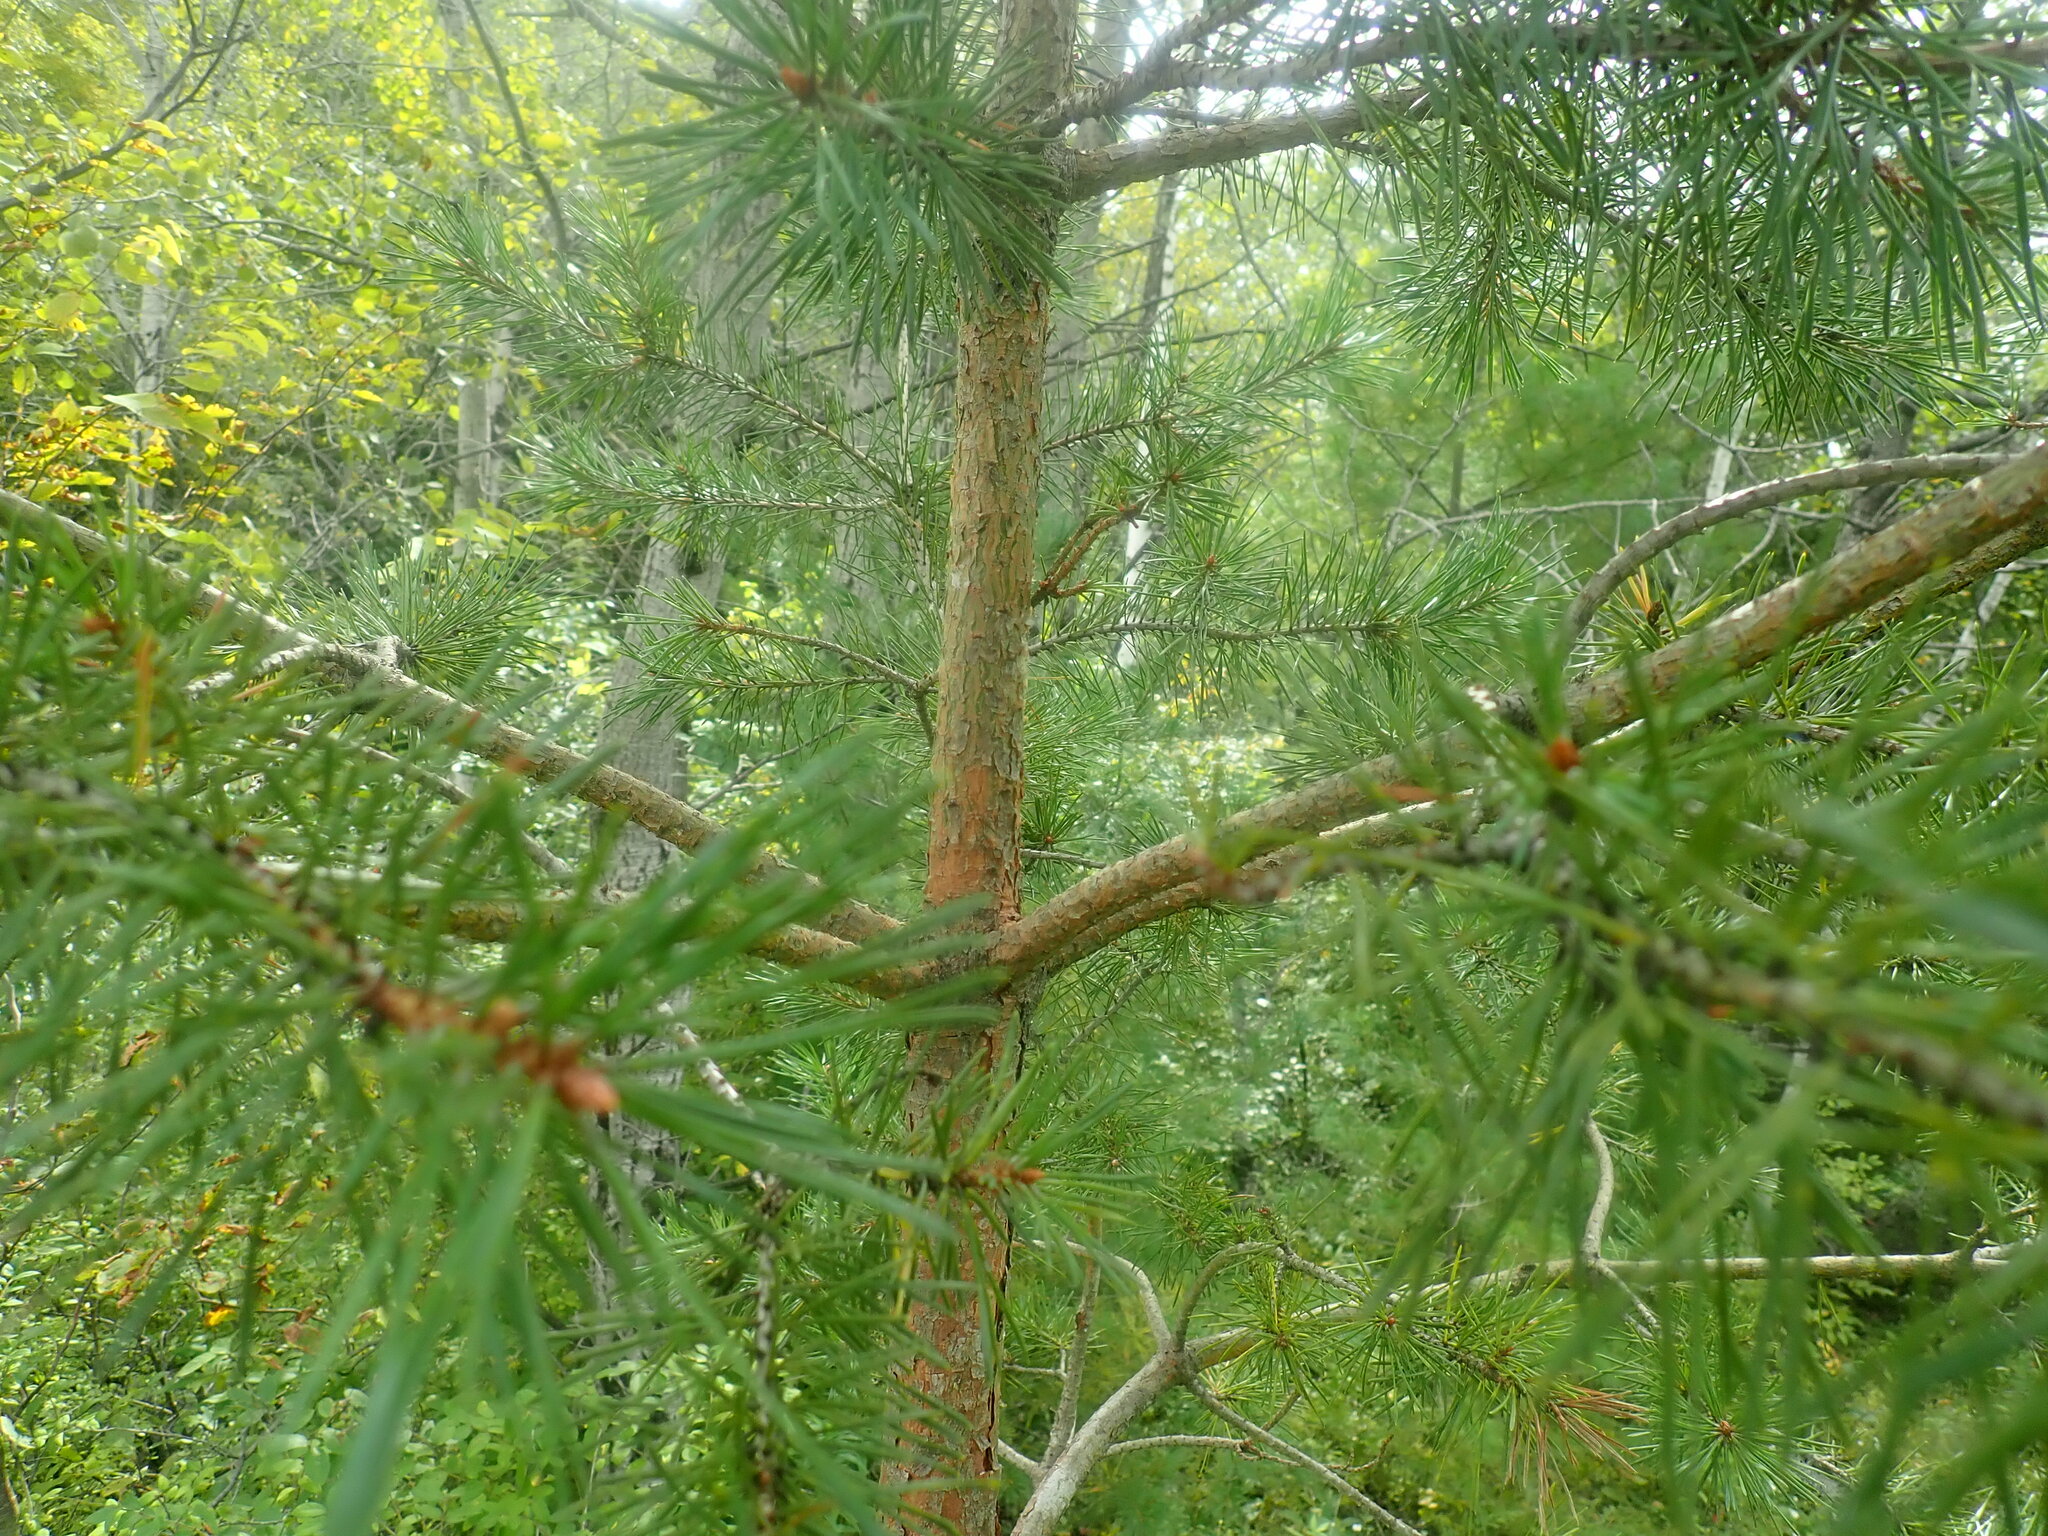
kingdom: Plantae
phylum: Tracheophyta
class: Pinopsida
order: Pinales
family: Pinaceae
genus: Pinus
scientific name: Pinus sylvestris
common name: Scots pine
